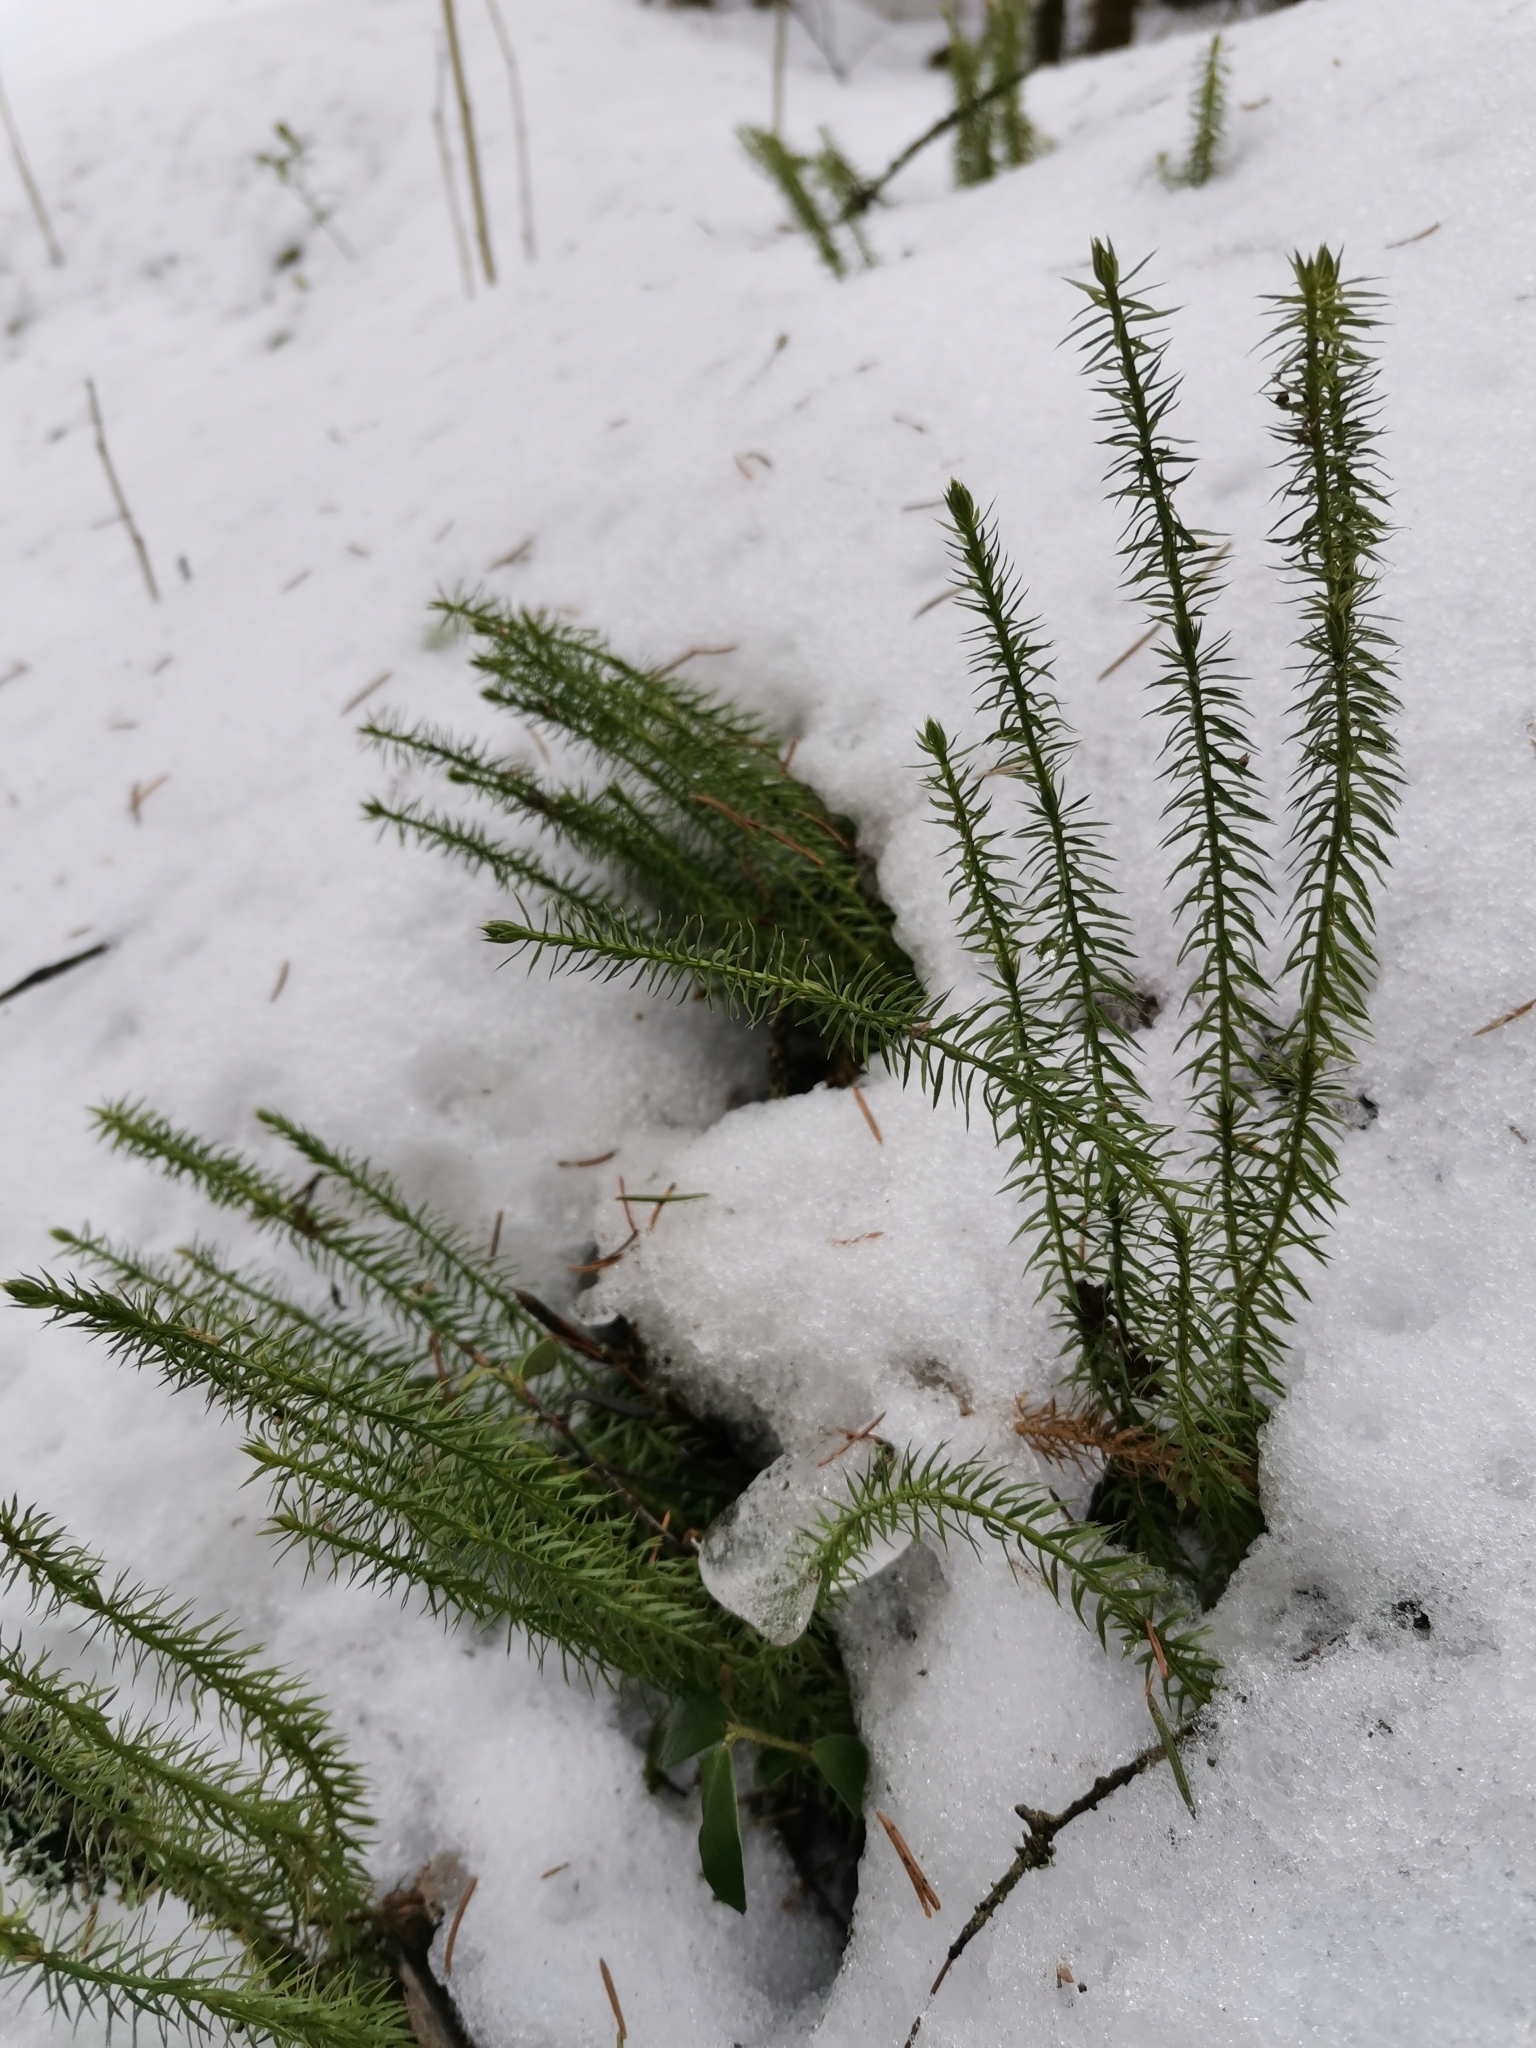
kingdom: Plantae
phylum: Tracheophyta
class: Lycopodiopsida
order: Lycopodiales
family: Lycopodiaceae
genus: Spinulum
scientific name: Spinulum annotinum
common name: Interrupted club-moss
